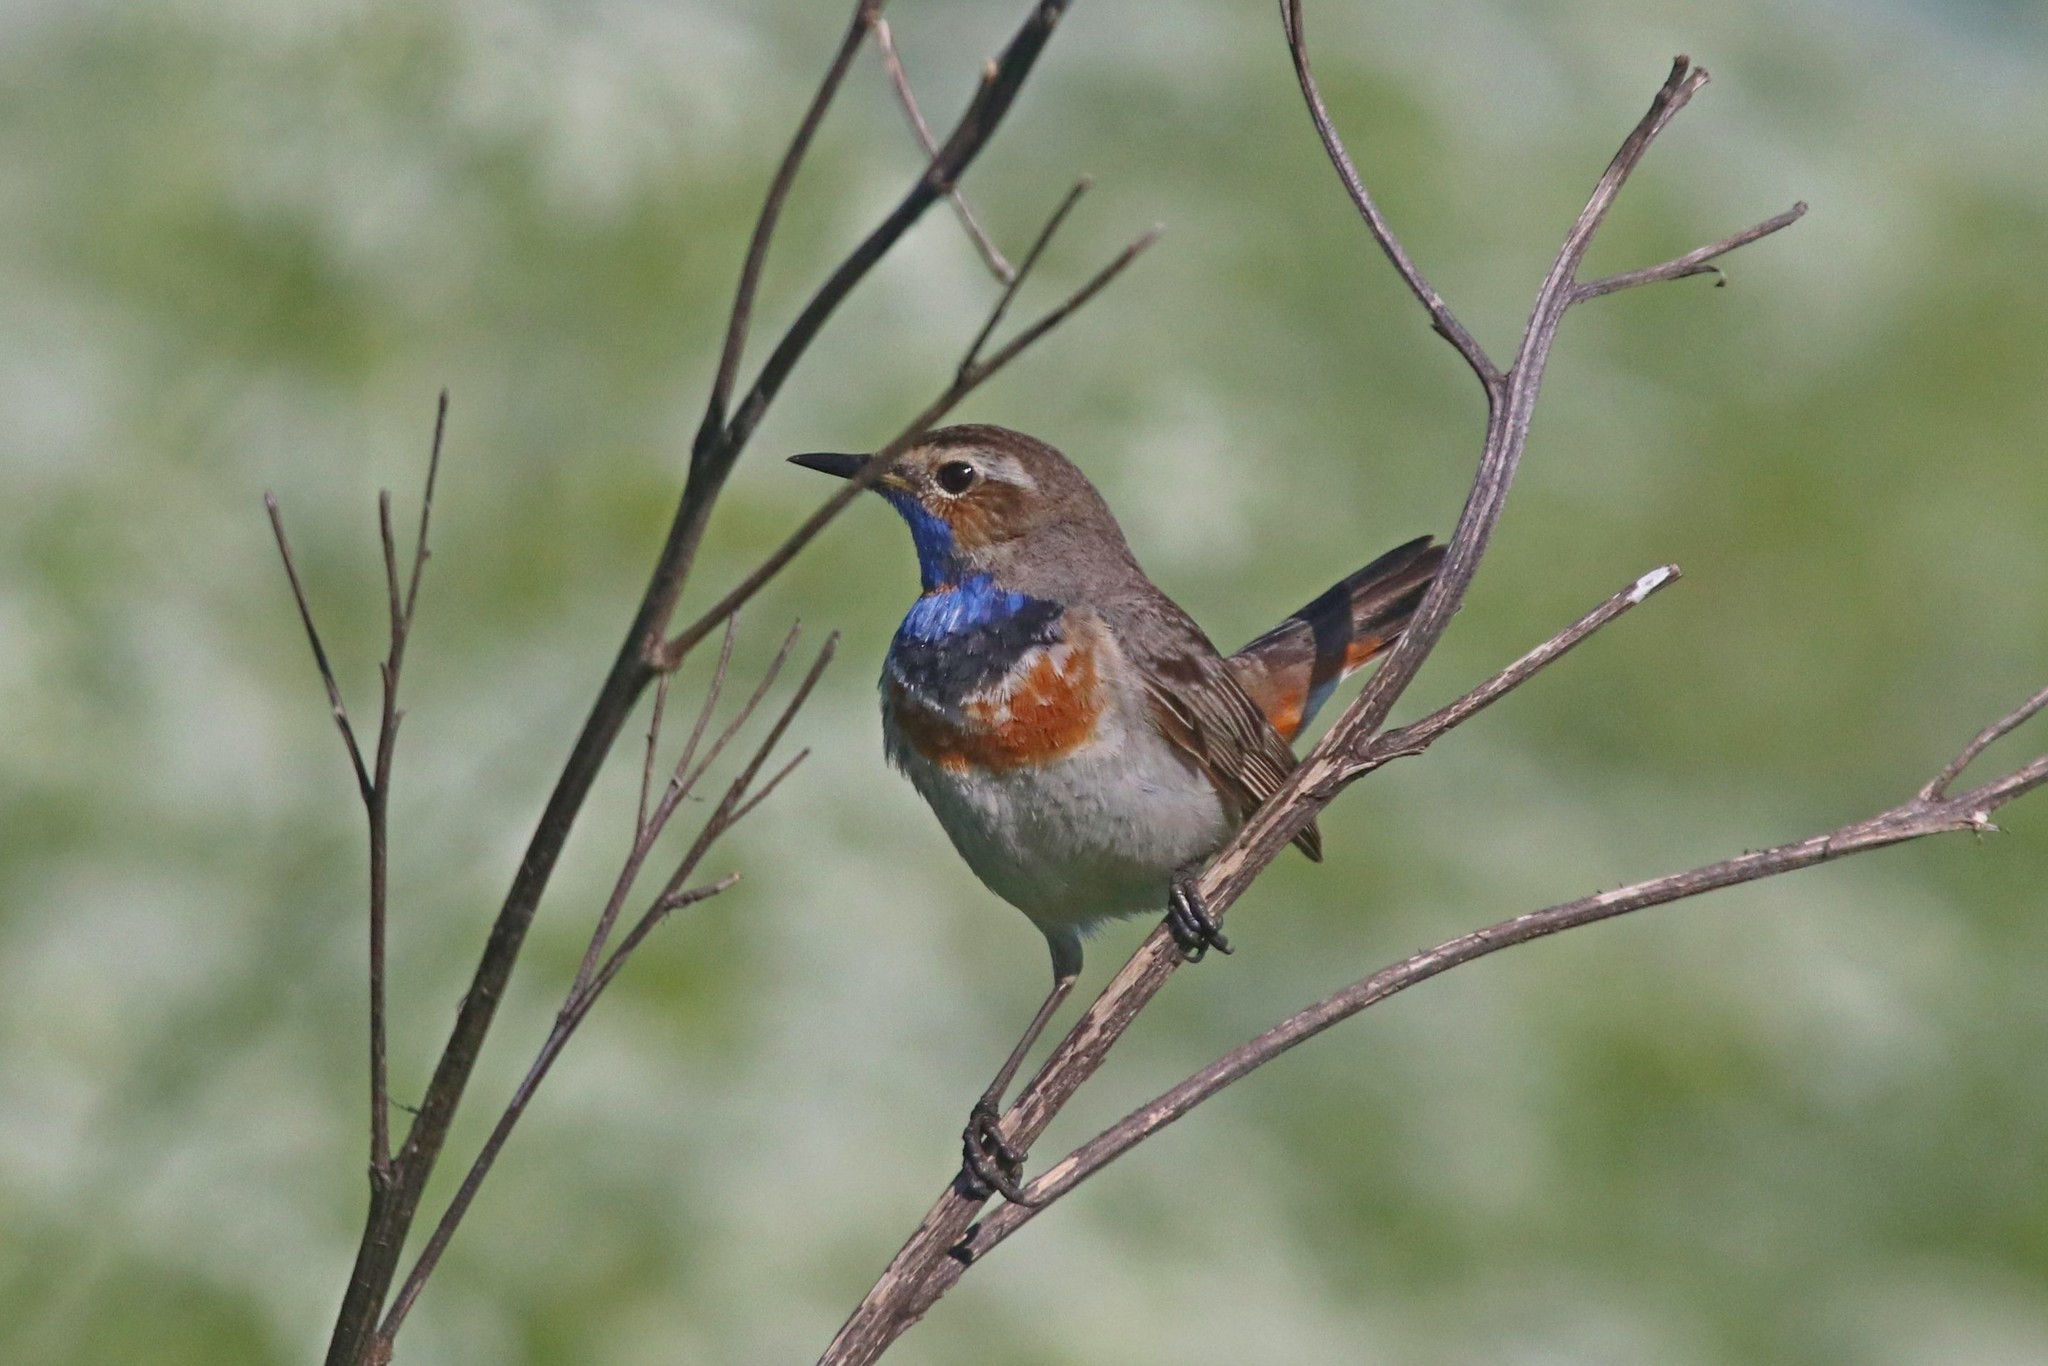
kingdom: Animalia
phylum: Chordata
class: Aves
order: Passeriformes
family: Muscicapidae
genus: Luscinia
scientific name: Luscinia svecica
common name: Bluethroat
